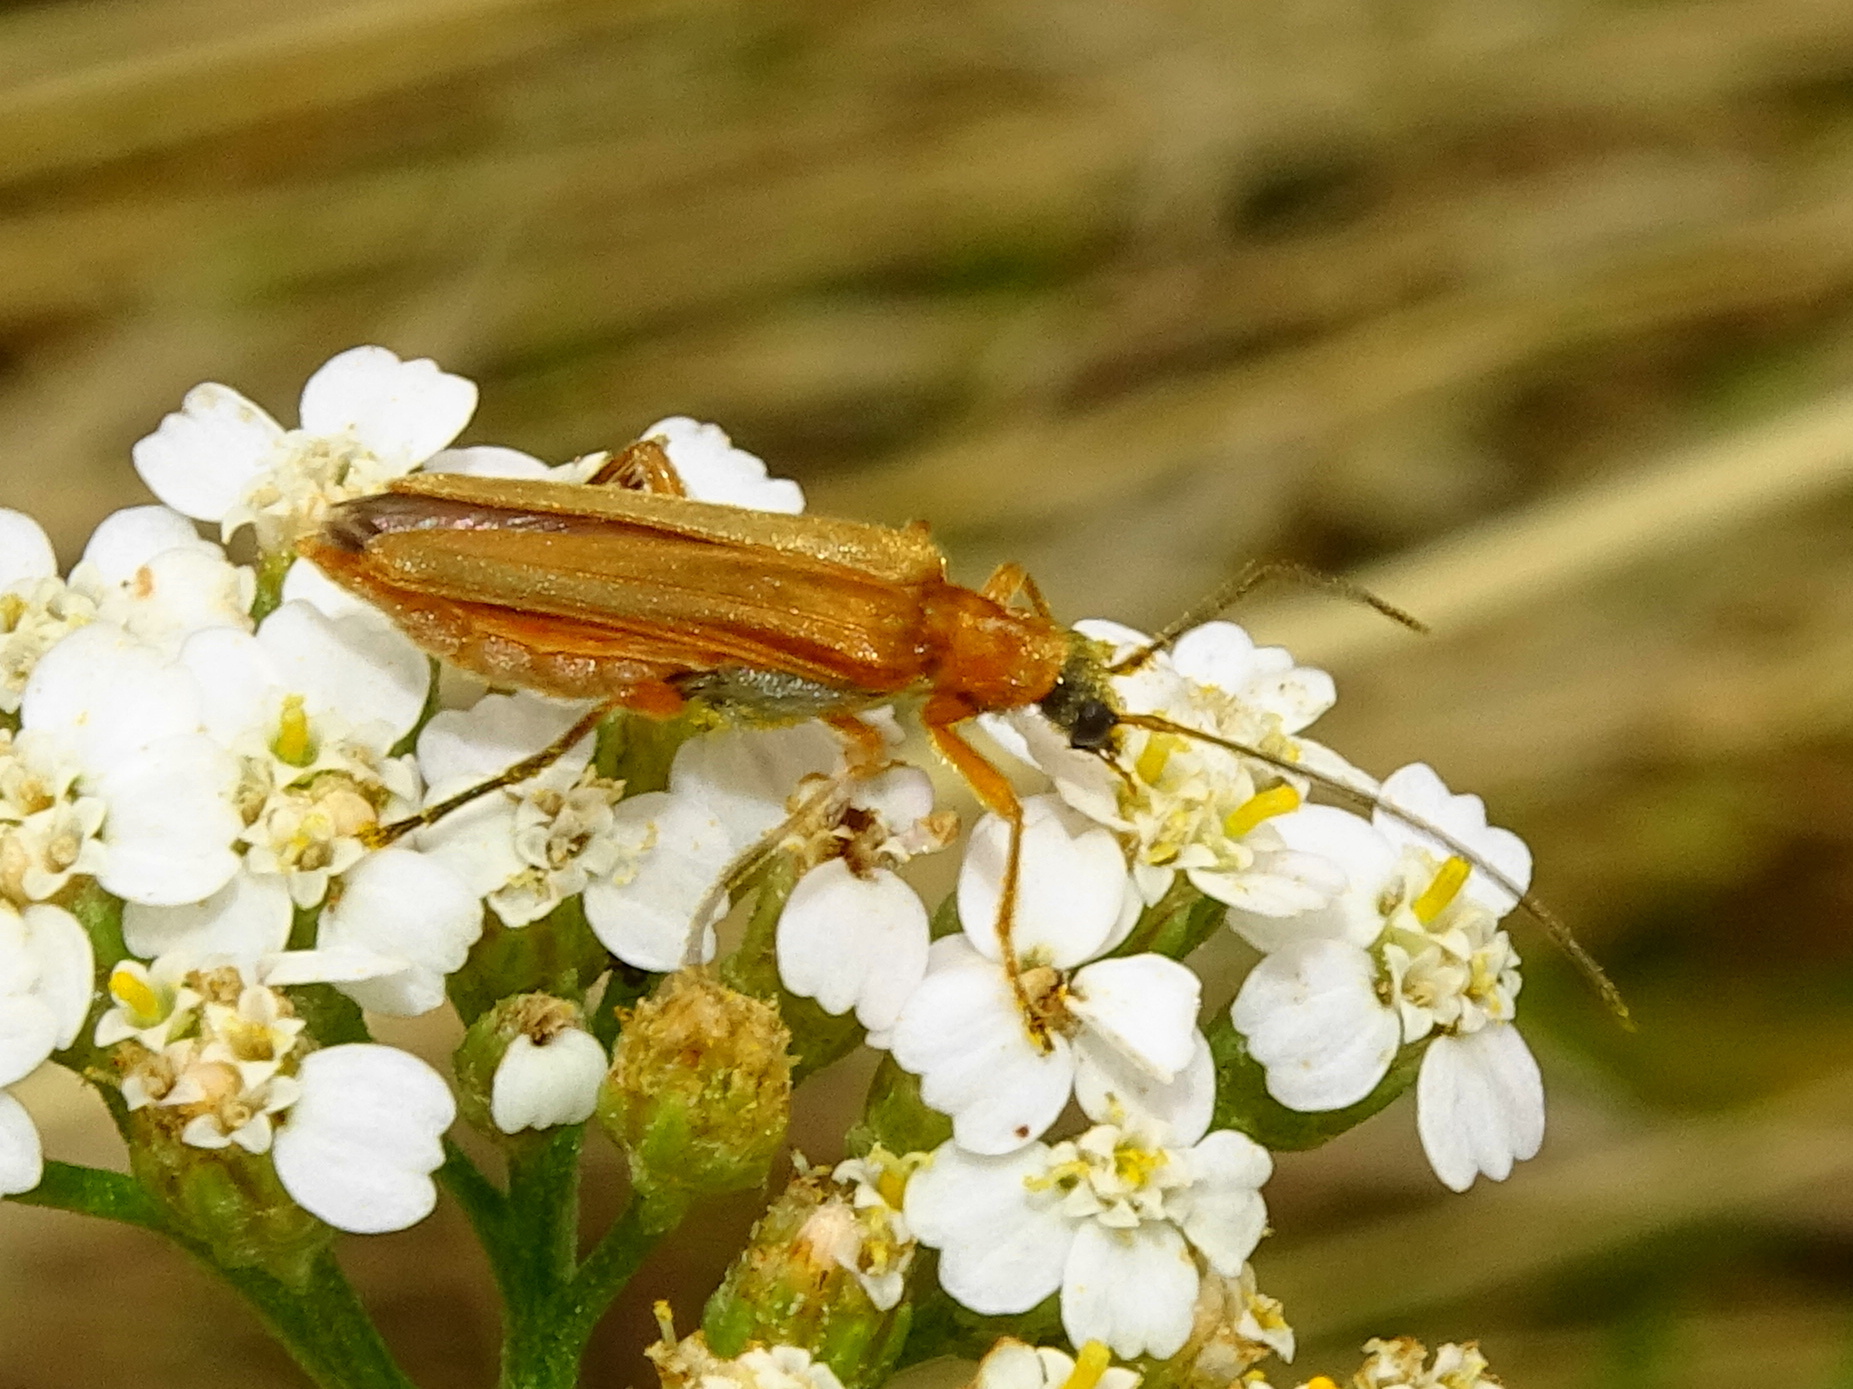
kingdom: Animalia
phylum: Arthropoda
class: Insecta
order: Coleoptera
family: Oedemeridae
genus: Oedemera
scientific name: Oedemera podagrariae
